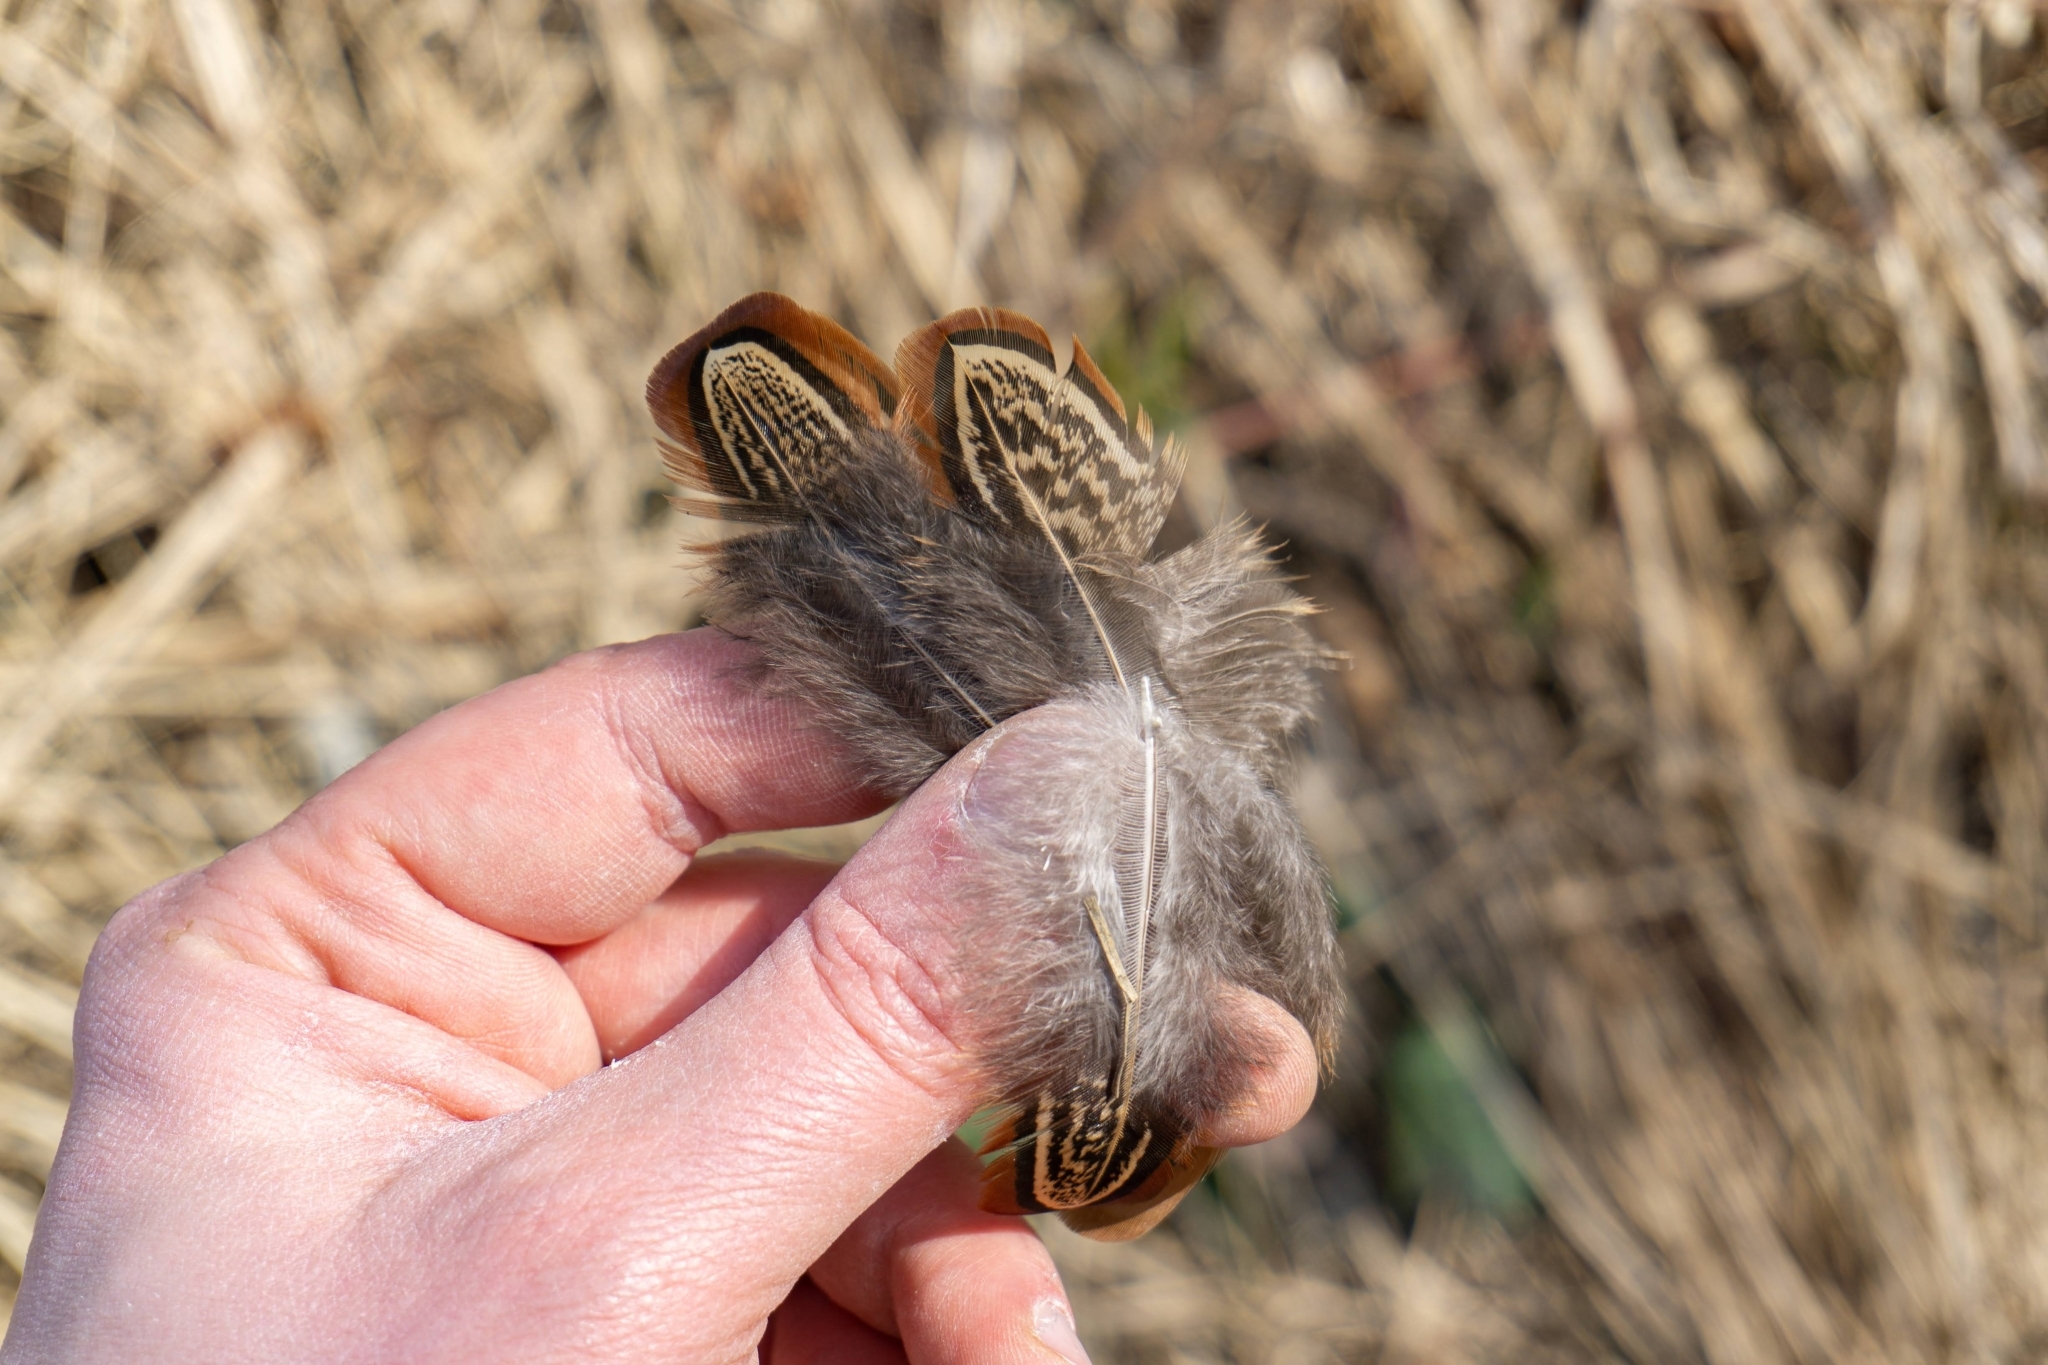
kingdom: Animalia
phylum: Chordata
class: Aves
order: Galliformes
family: Phasianidae
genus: Phasianus
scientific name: Phasianus colchicus
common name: Common pheasant
